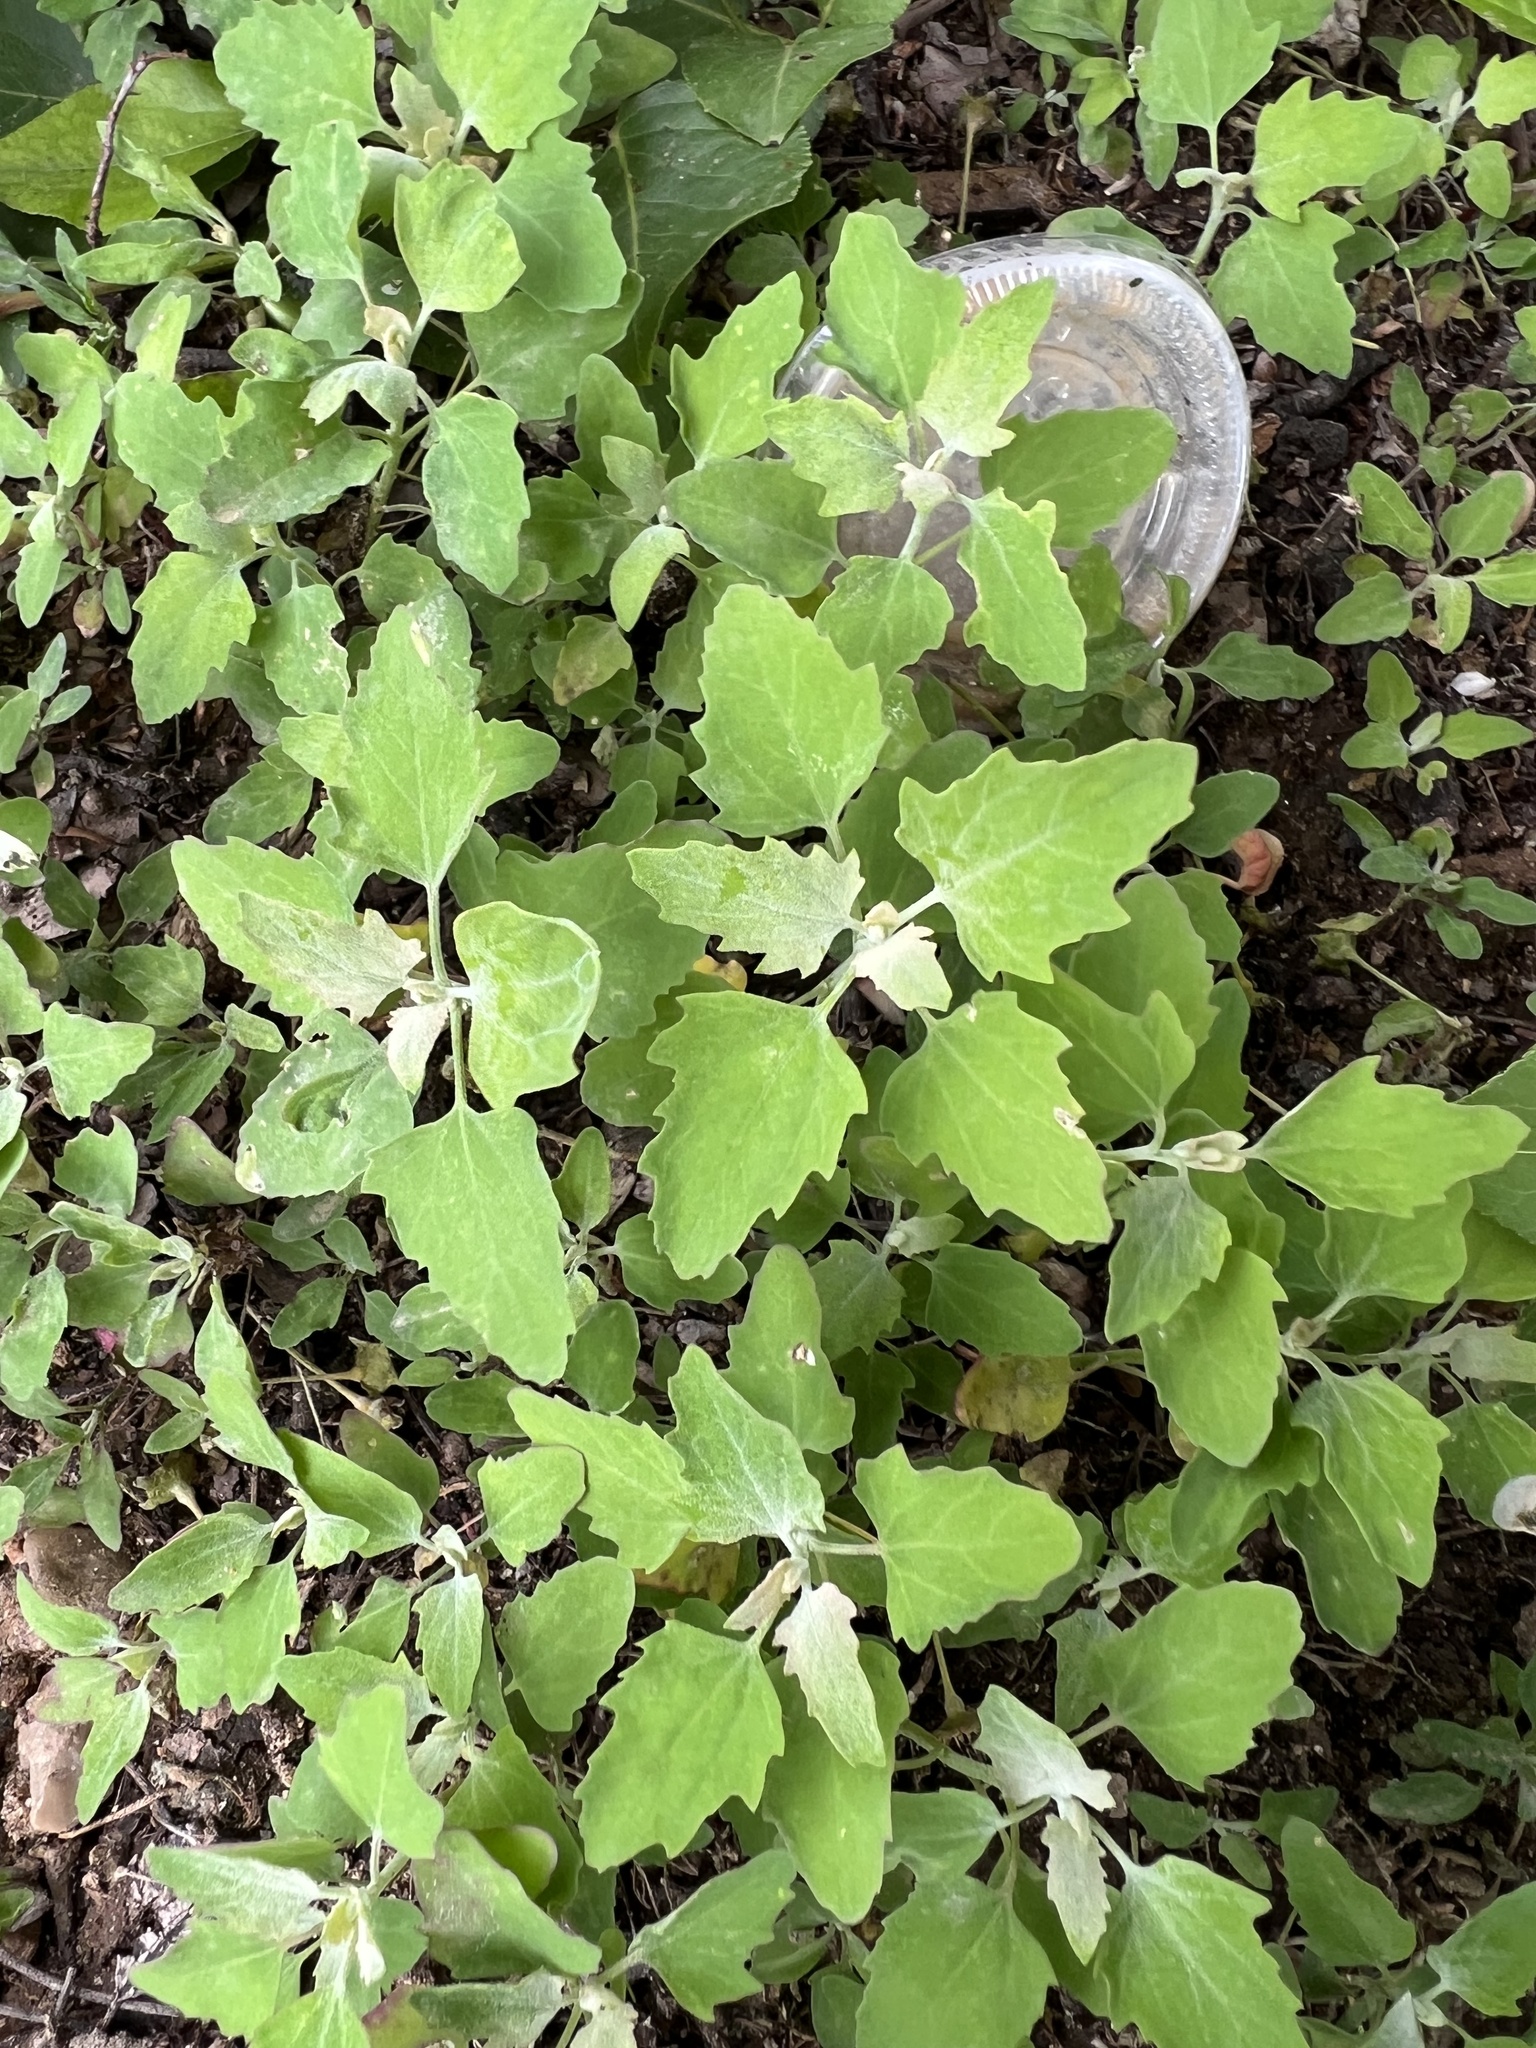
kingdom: Plantae
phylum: Tracheophyta
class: Magnoliopsida
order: Caryophyllales
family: Amaranthaceae
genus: Chenopodium
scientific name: Chenopodium album
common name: Fat-hen
